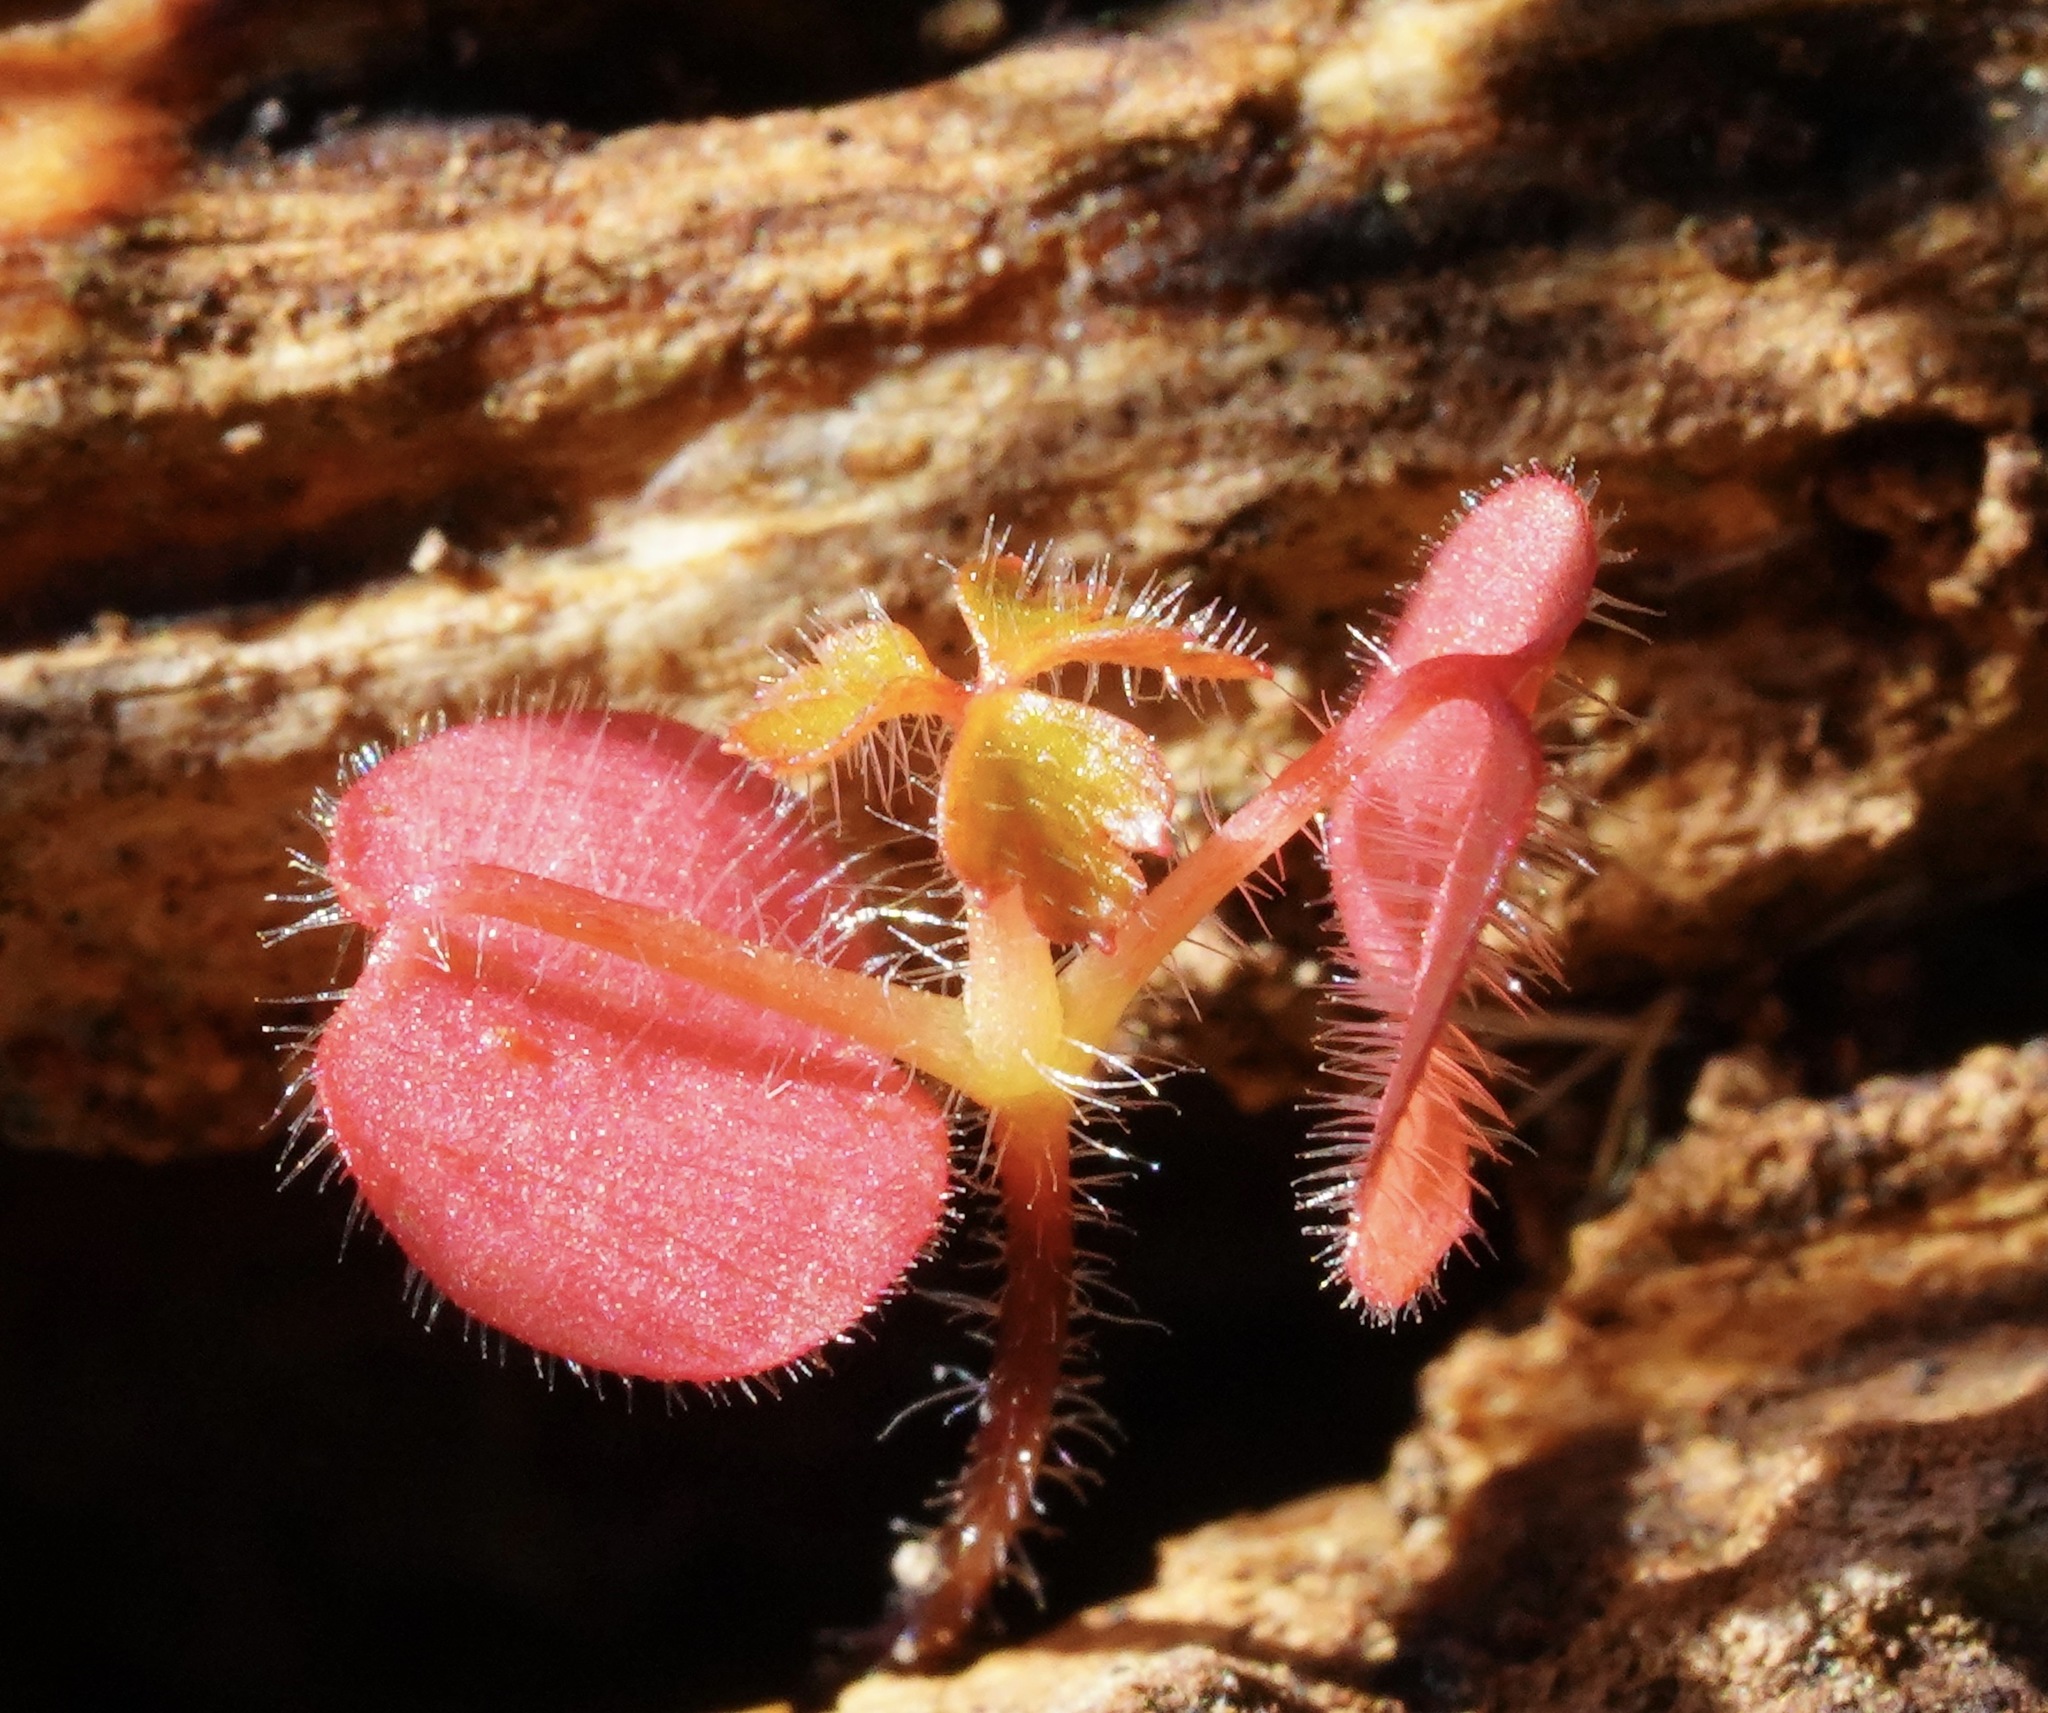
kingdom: Plantae
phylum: Tracheophyta
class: Magnoliopsida
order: Geraniales
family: Geraniaceae
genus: Geranium
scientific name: Geranium
